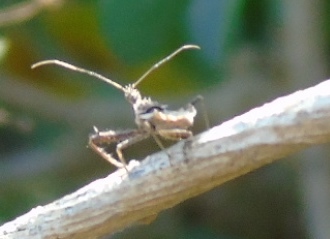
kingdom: Animalia
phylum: Arthropoda
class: Insecta
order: Hemiptera
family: Reduviidae
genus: Sinea
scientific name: Sinea
